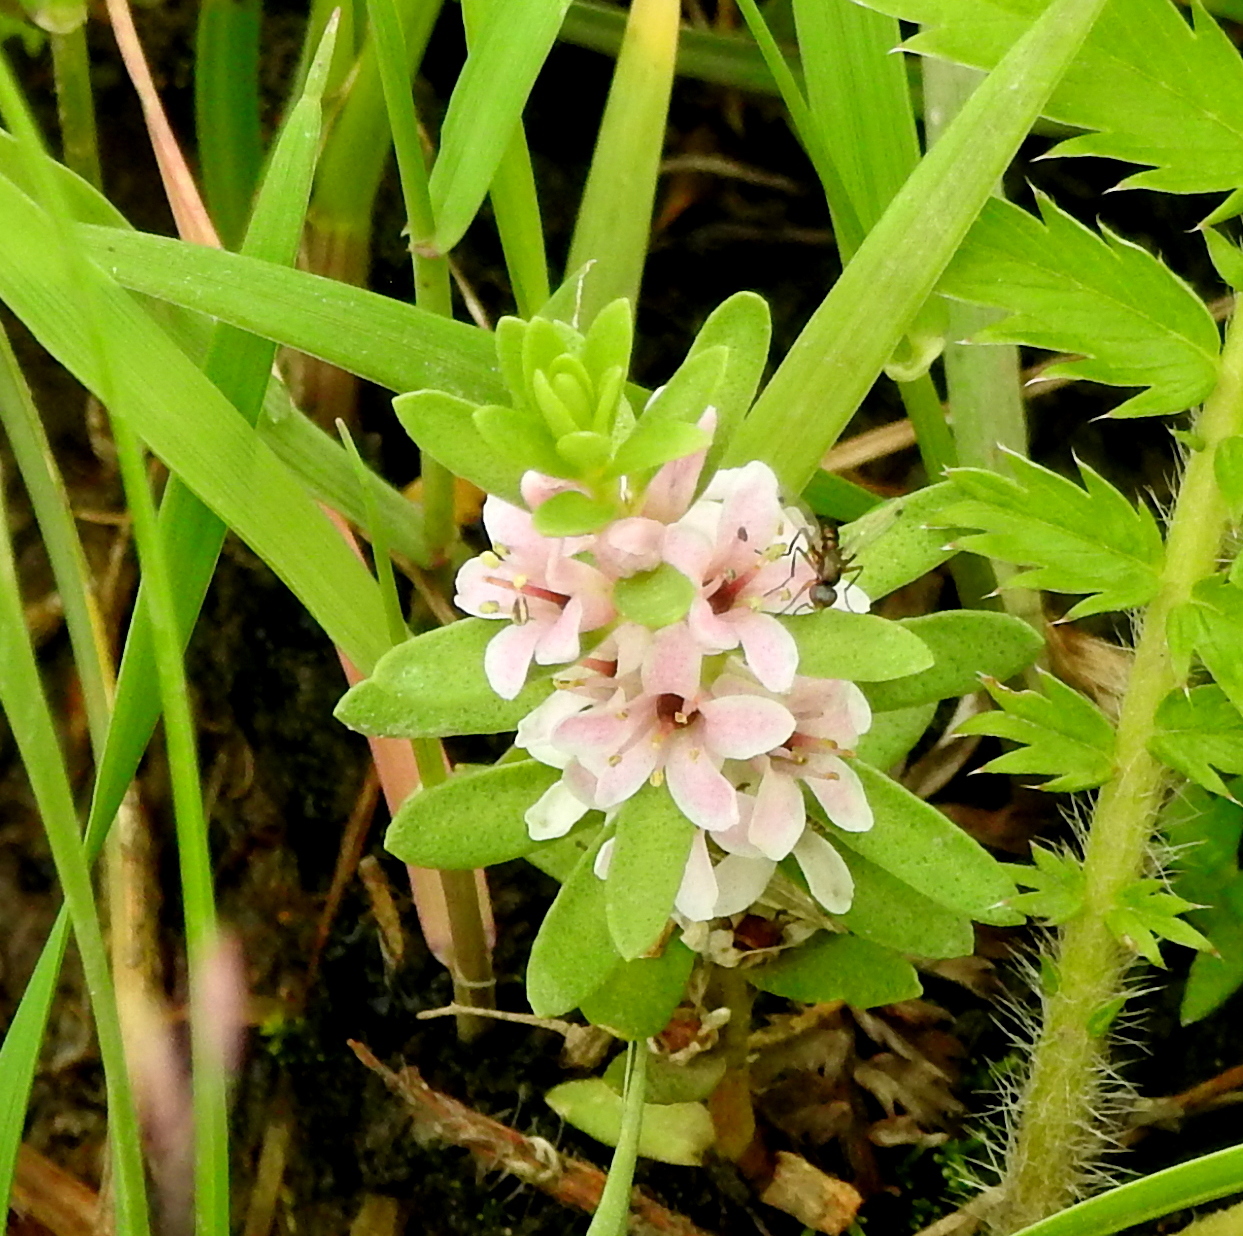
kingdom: Plantae
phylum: Tracheophyta
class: Magnoliopsida
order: Ericales
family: Primulaceae
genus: Lysimachia
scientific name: Lysimachia maritima
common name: Sea milkwort
